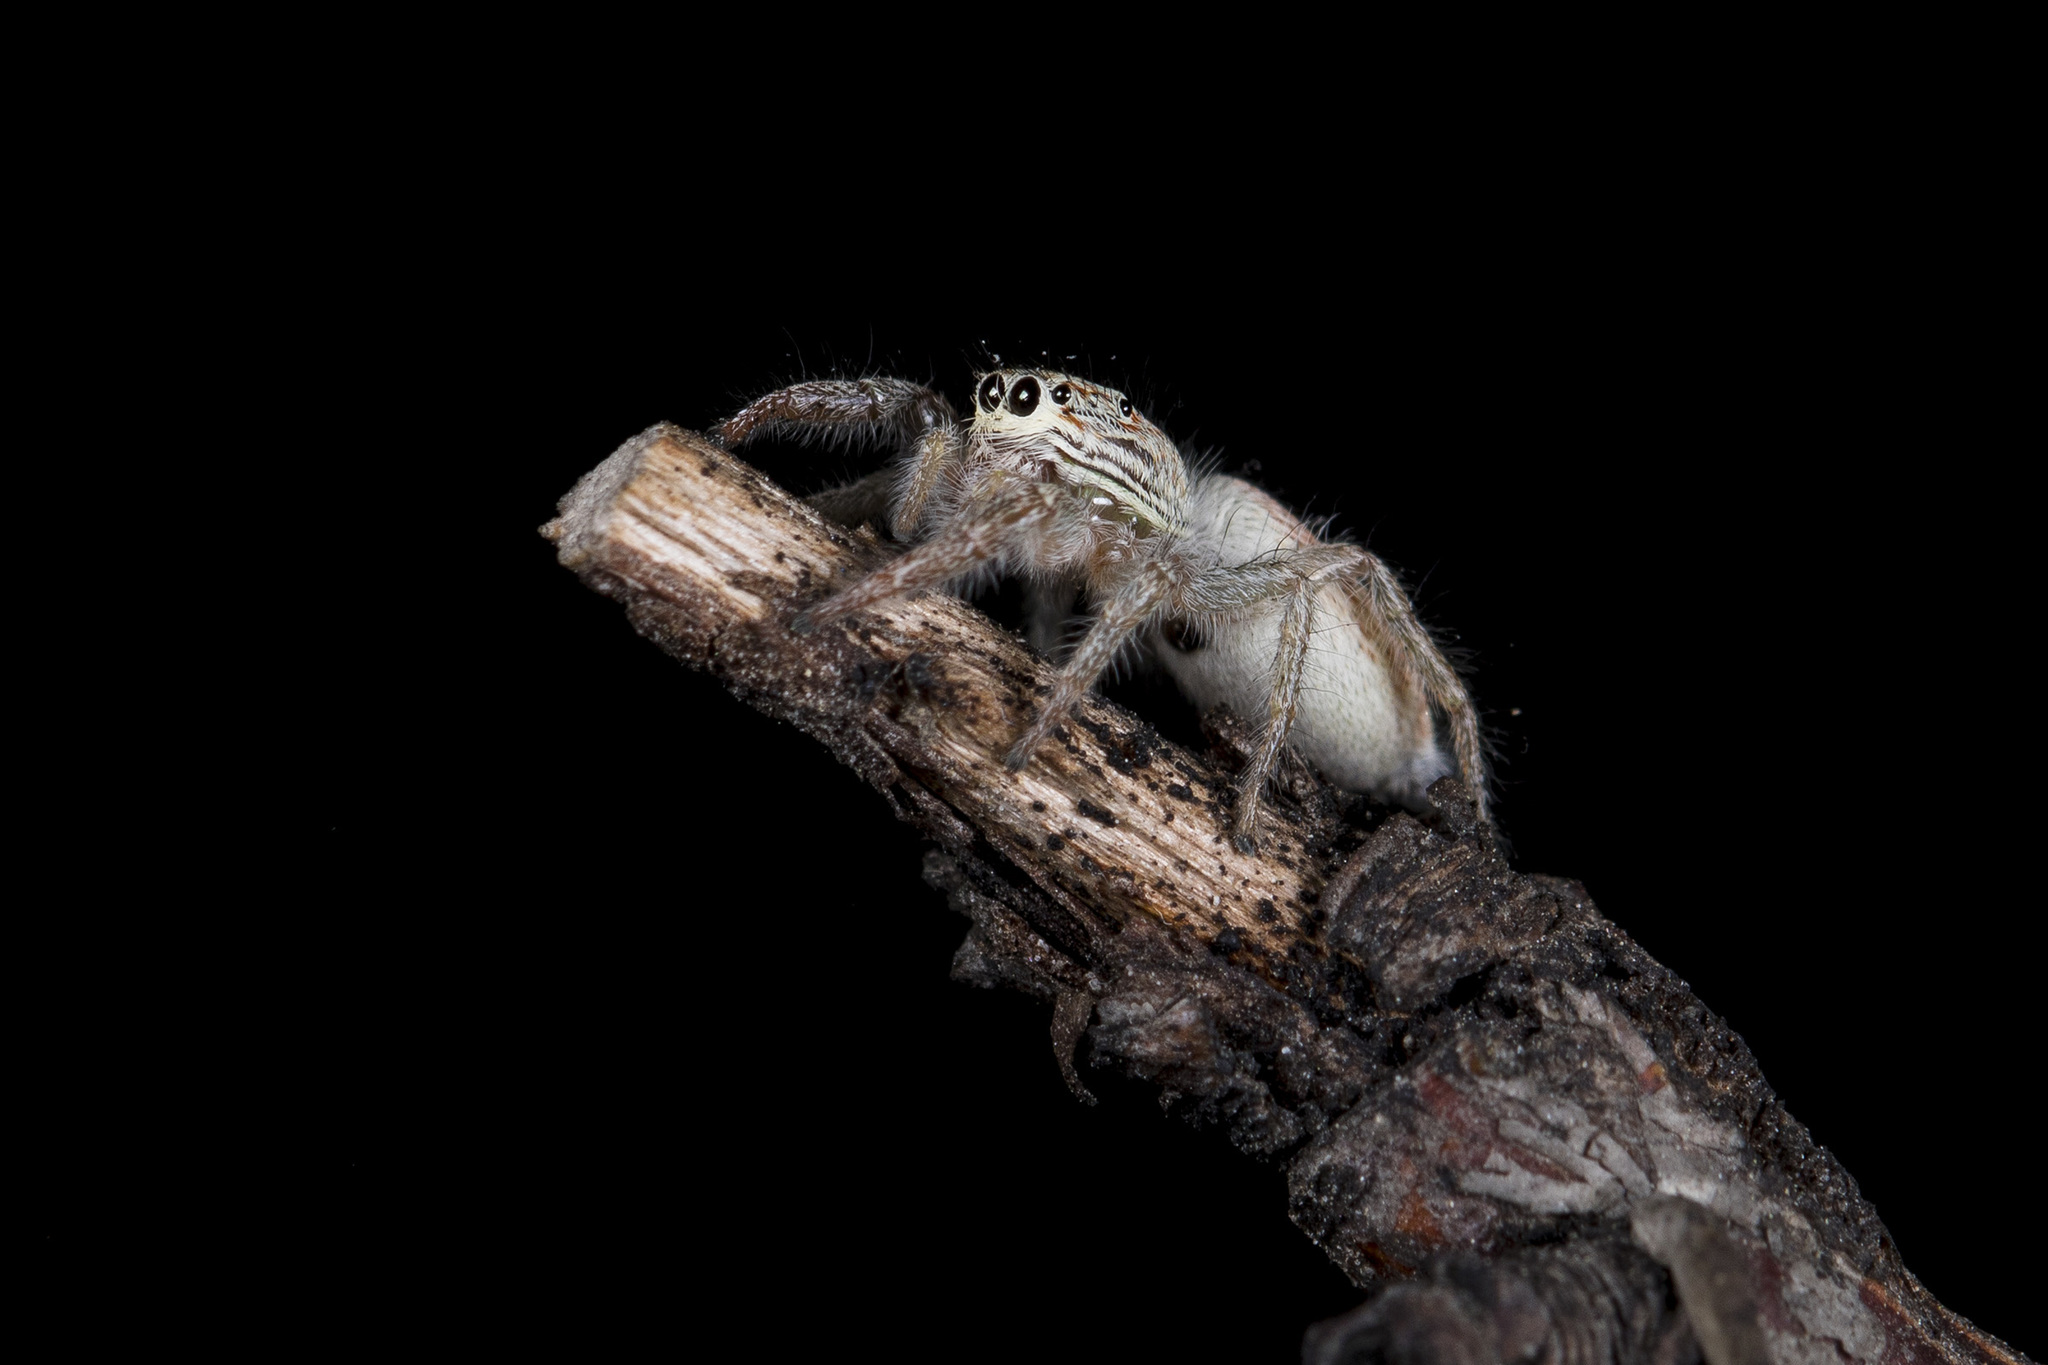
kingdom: Animalia
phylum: Arthropoda
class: Arachnida
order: Araneae
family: Salticidae
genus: Rudakius
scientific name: Rudakius cinctus
